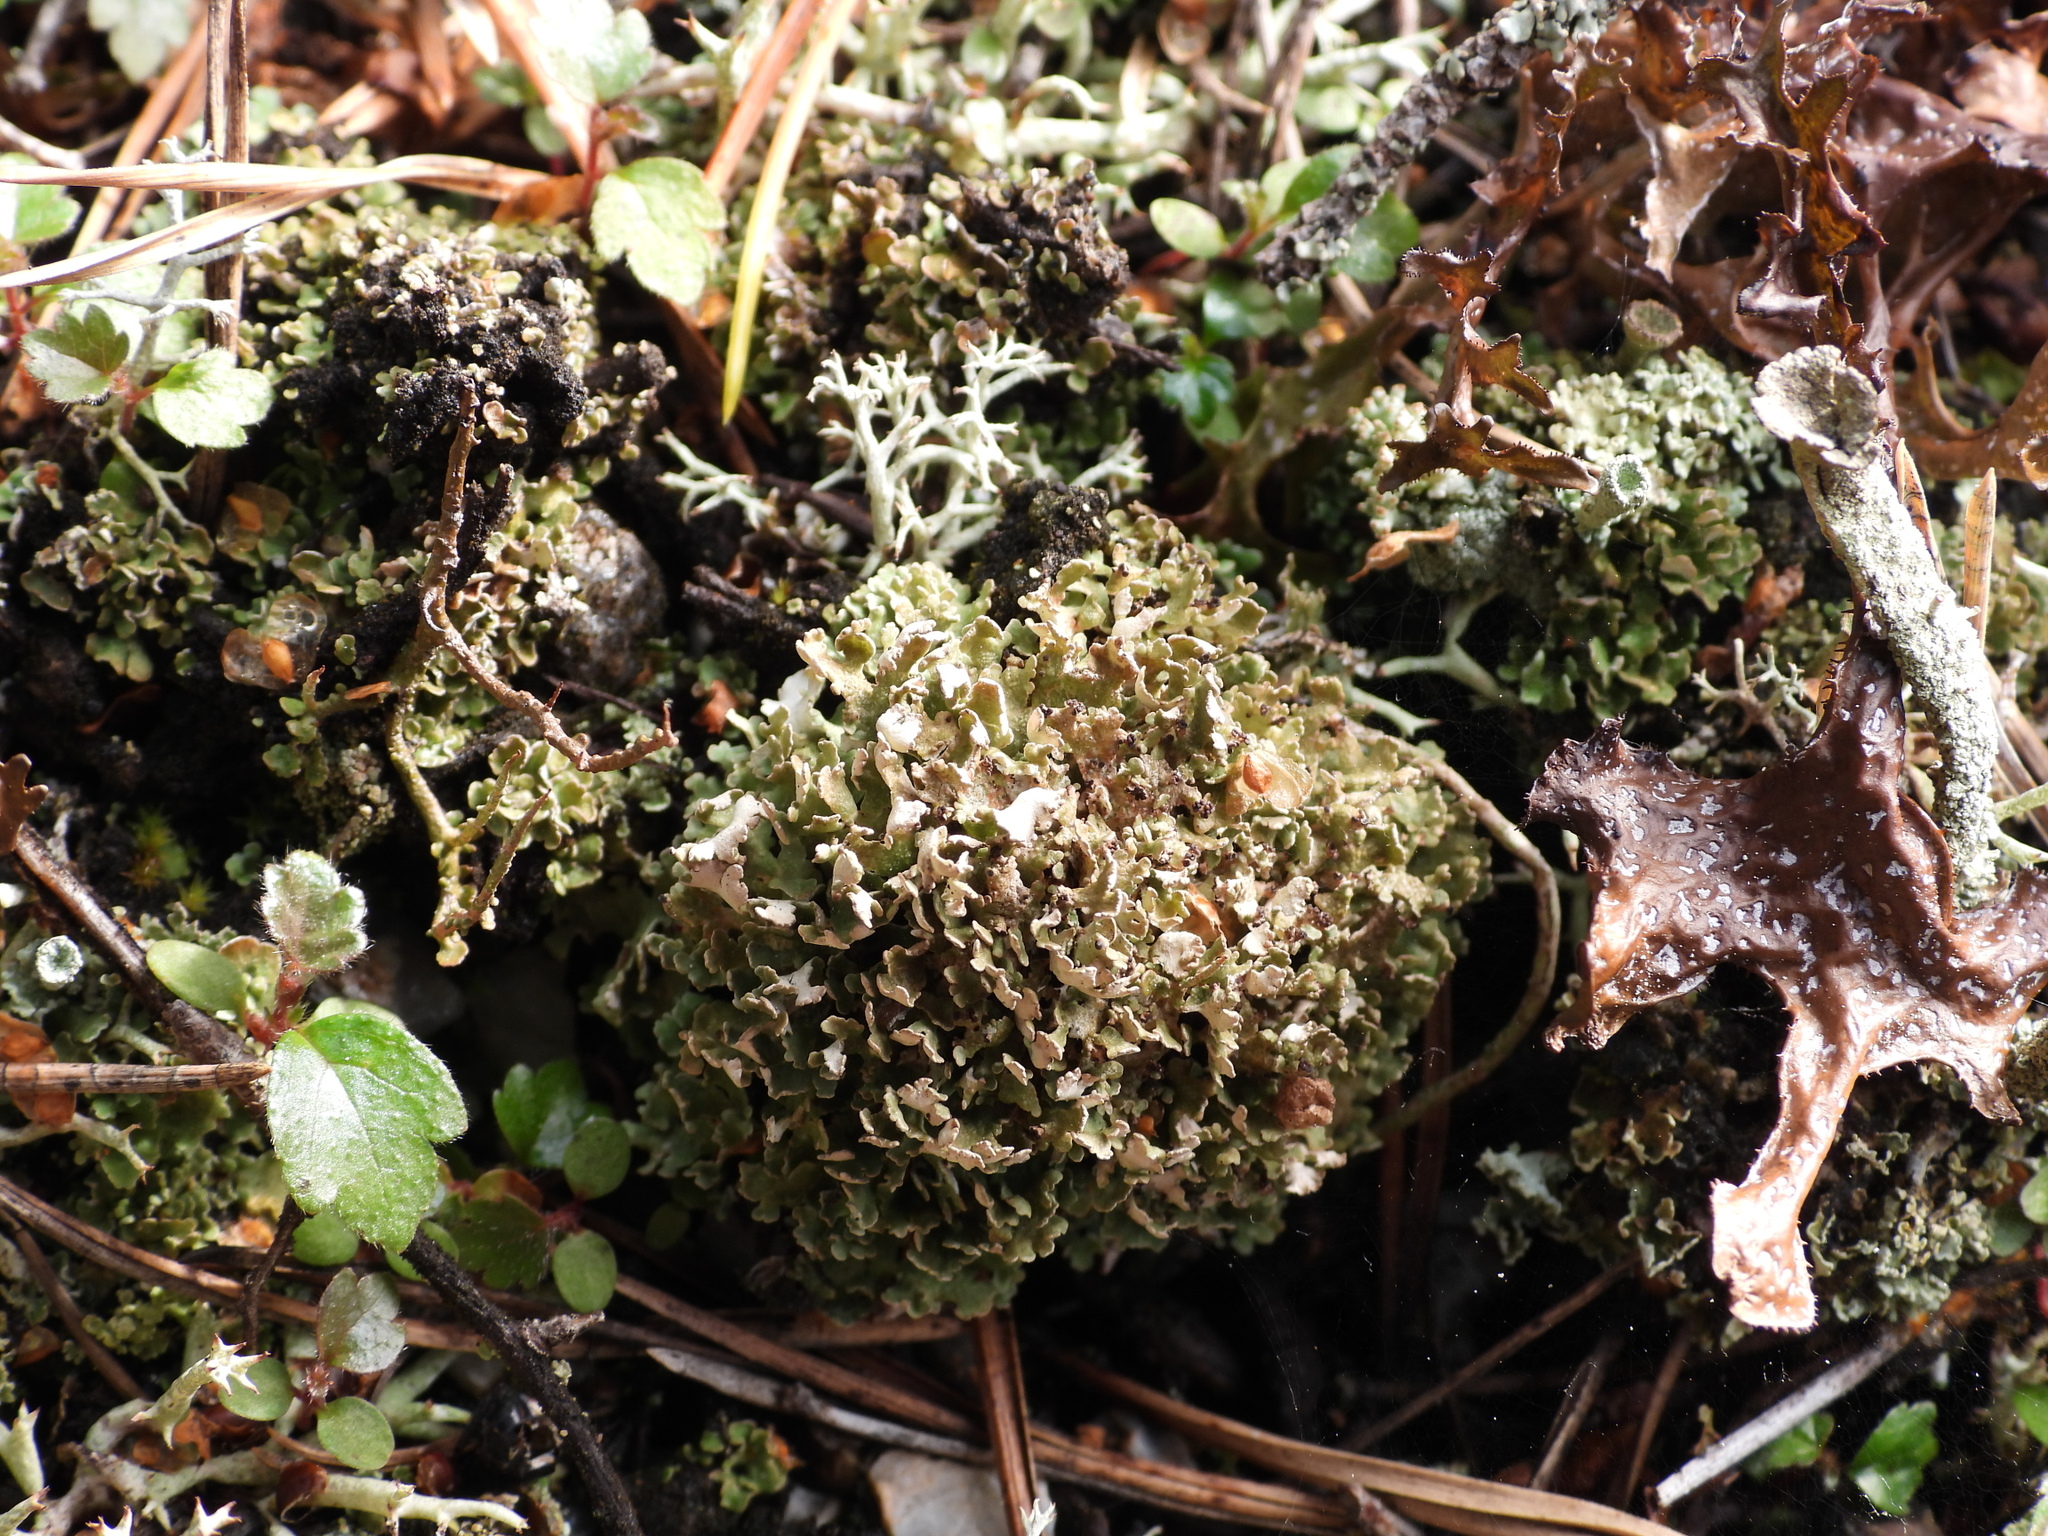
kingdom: Fungi
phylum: Ascomycota
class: Lecanoromycetes
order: Lecanorales
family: Cladoniaceae
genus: Cladonia
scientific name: Cladonia strepsilis
